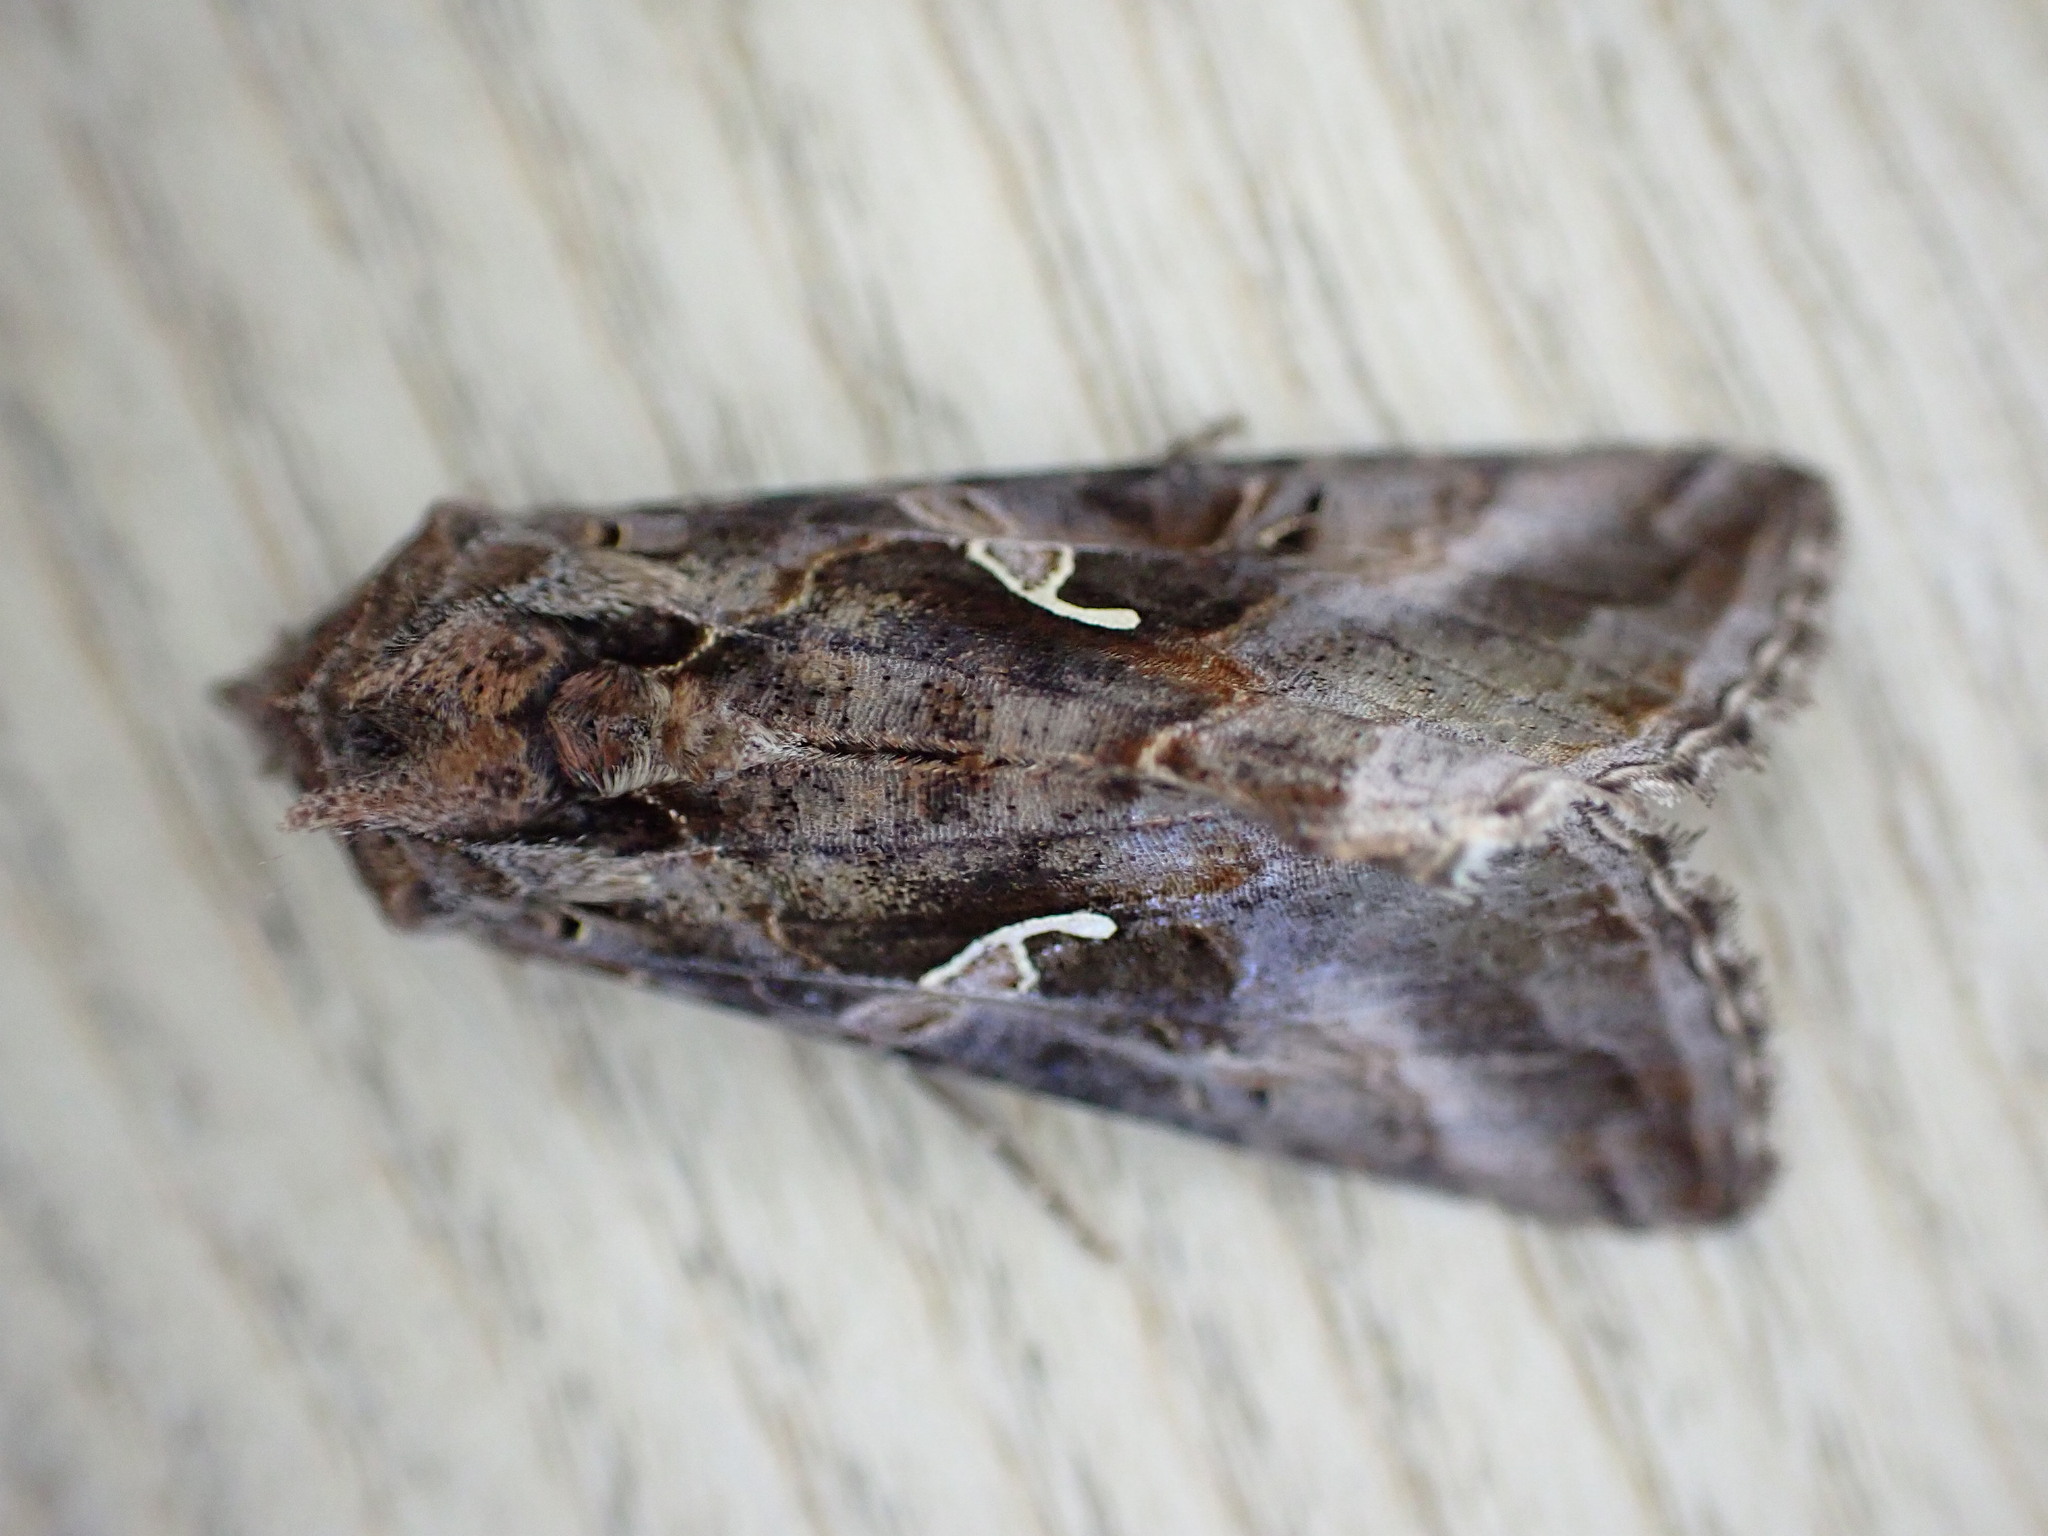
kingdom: Animalia
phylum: Arthropoda
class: Insecta
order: Lepidoptera
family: Noctuidae
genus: Autographa
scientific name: Autographa gamma
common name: Silver y
